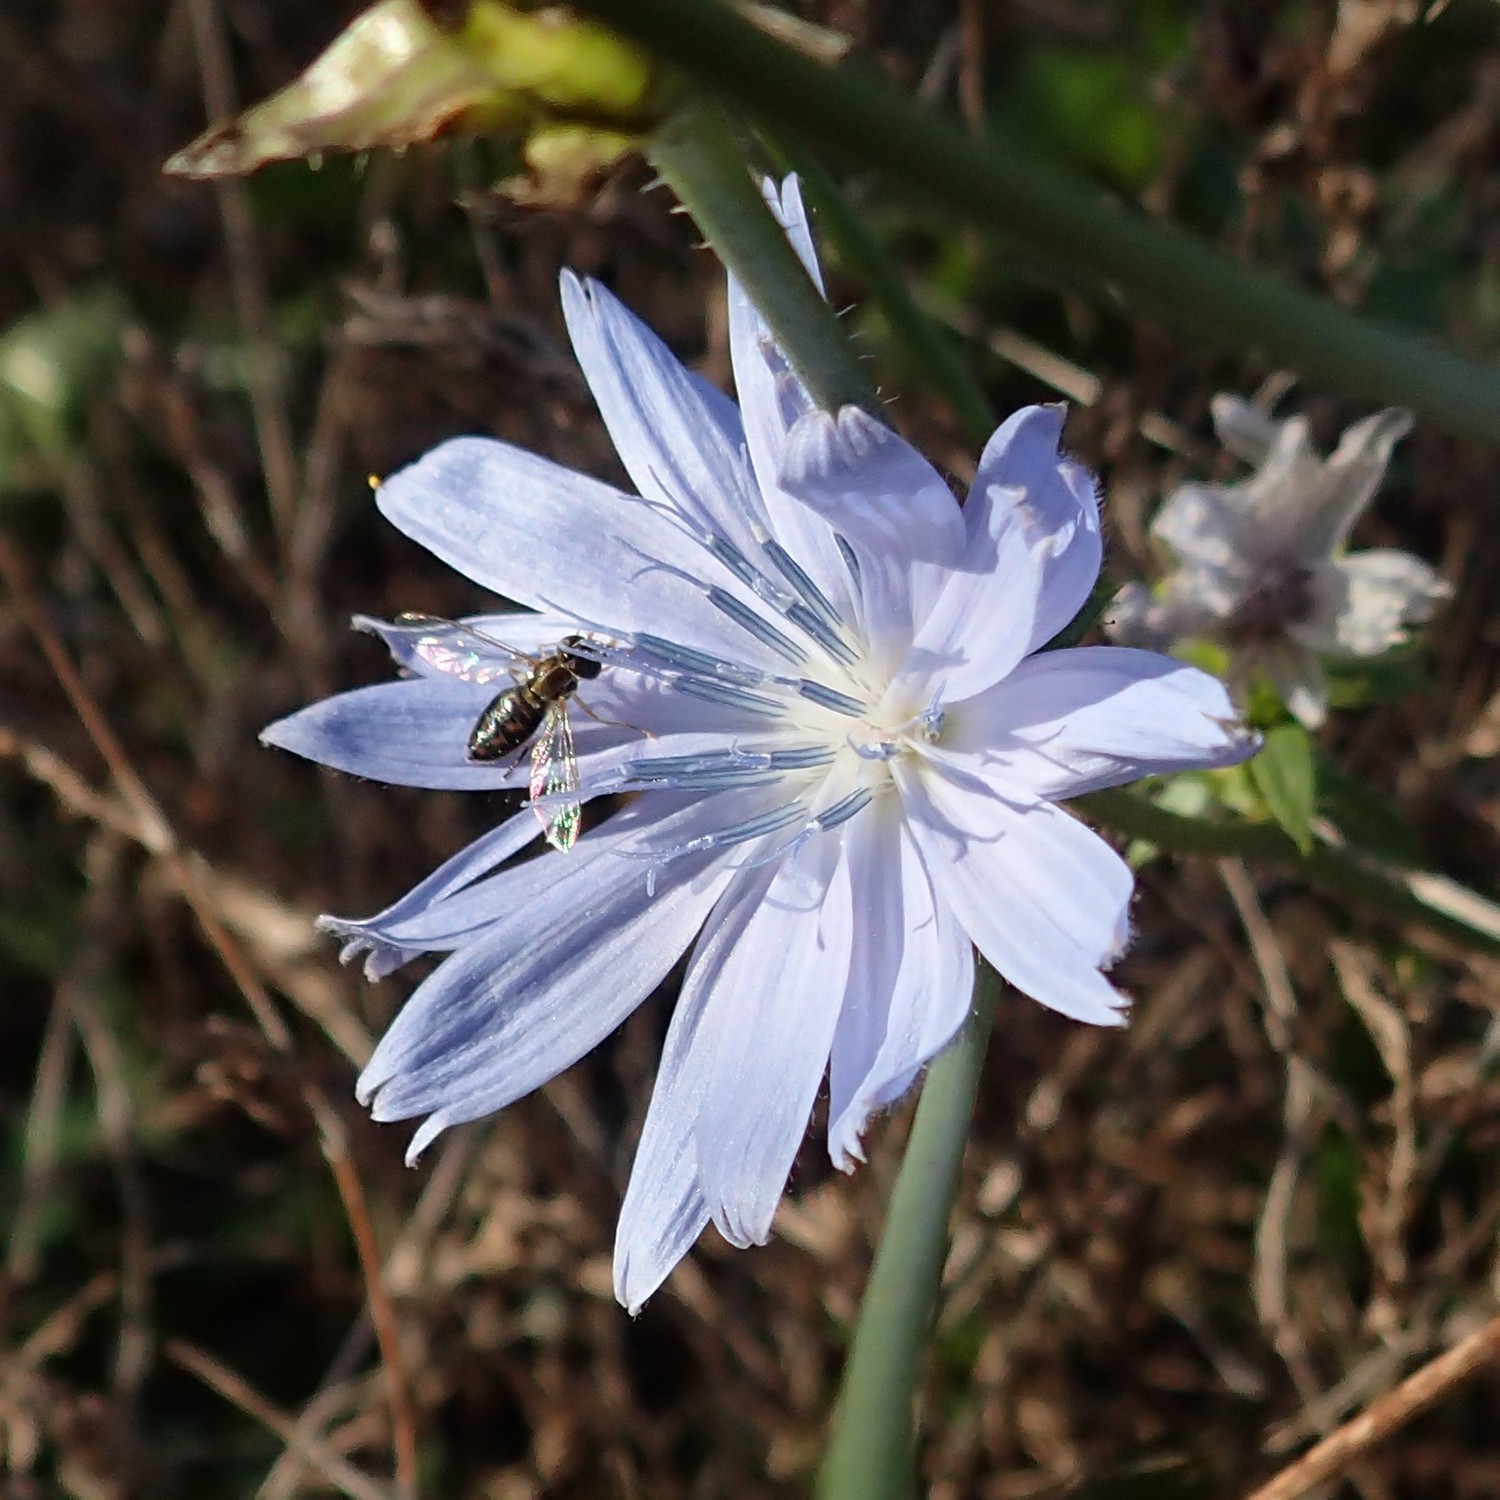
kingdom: Plantae
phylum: Tracheophyta
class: Magnoliopsida
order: Asterales
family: Asteraceae
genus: Cichorium
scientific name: Cichorium intybus
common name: Chicory
